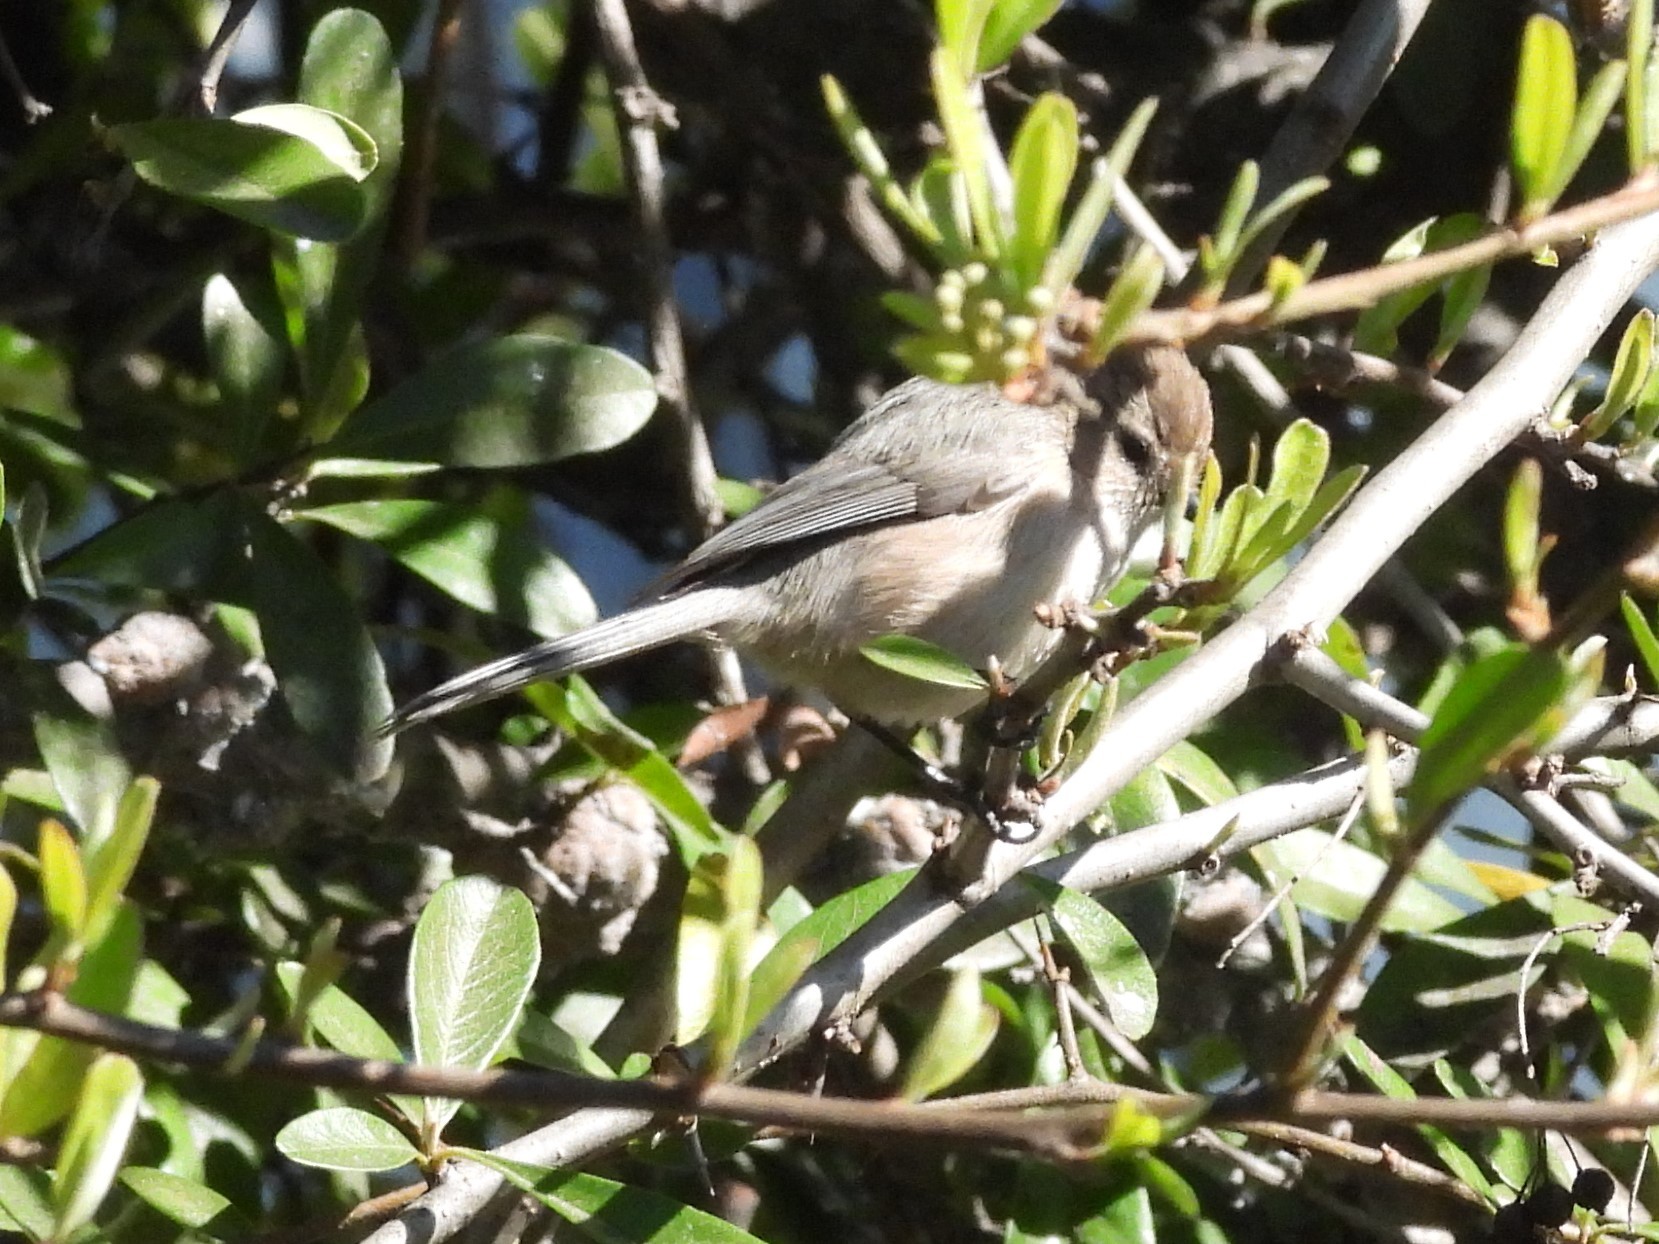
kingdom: Animalia
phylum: Chordata
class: Aves
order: Passeriformes
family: Aegithalidae
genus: Psaltriparus
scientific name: Psaltriparus minimus
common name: American bushtit
